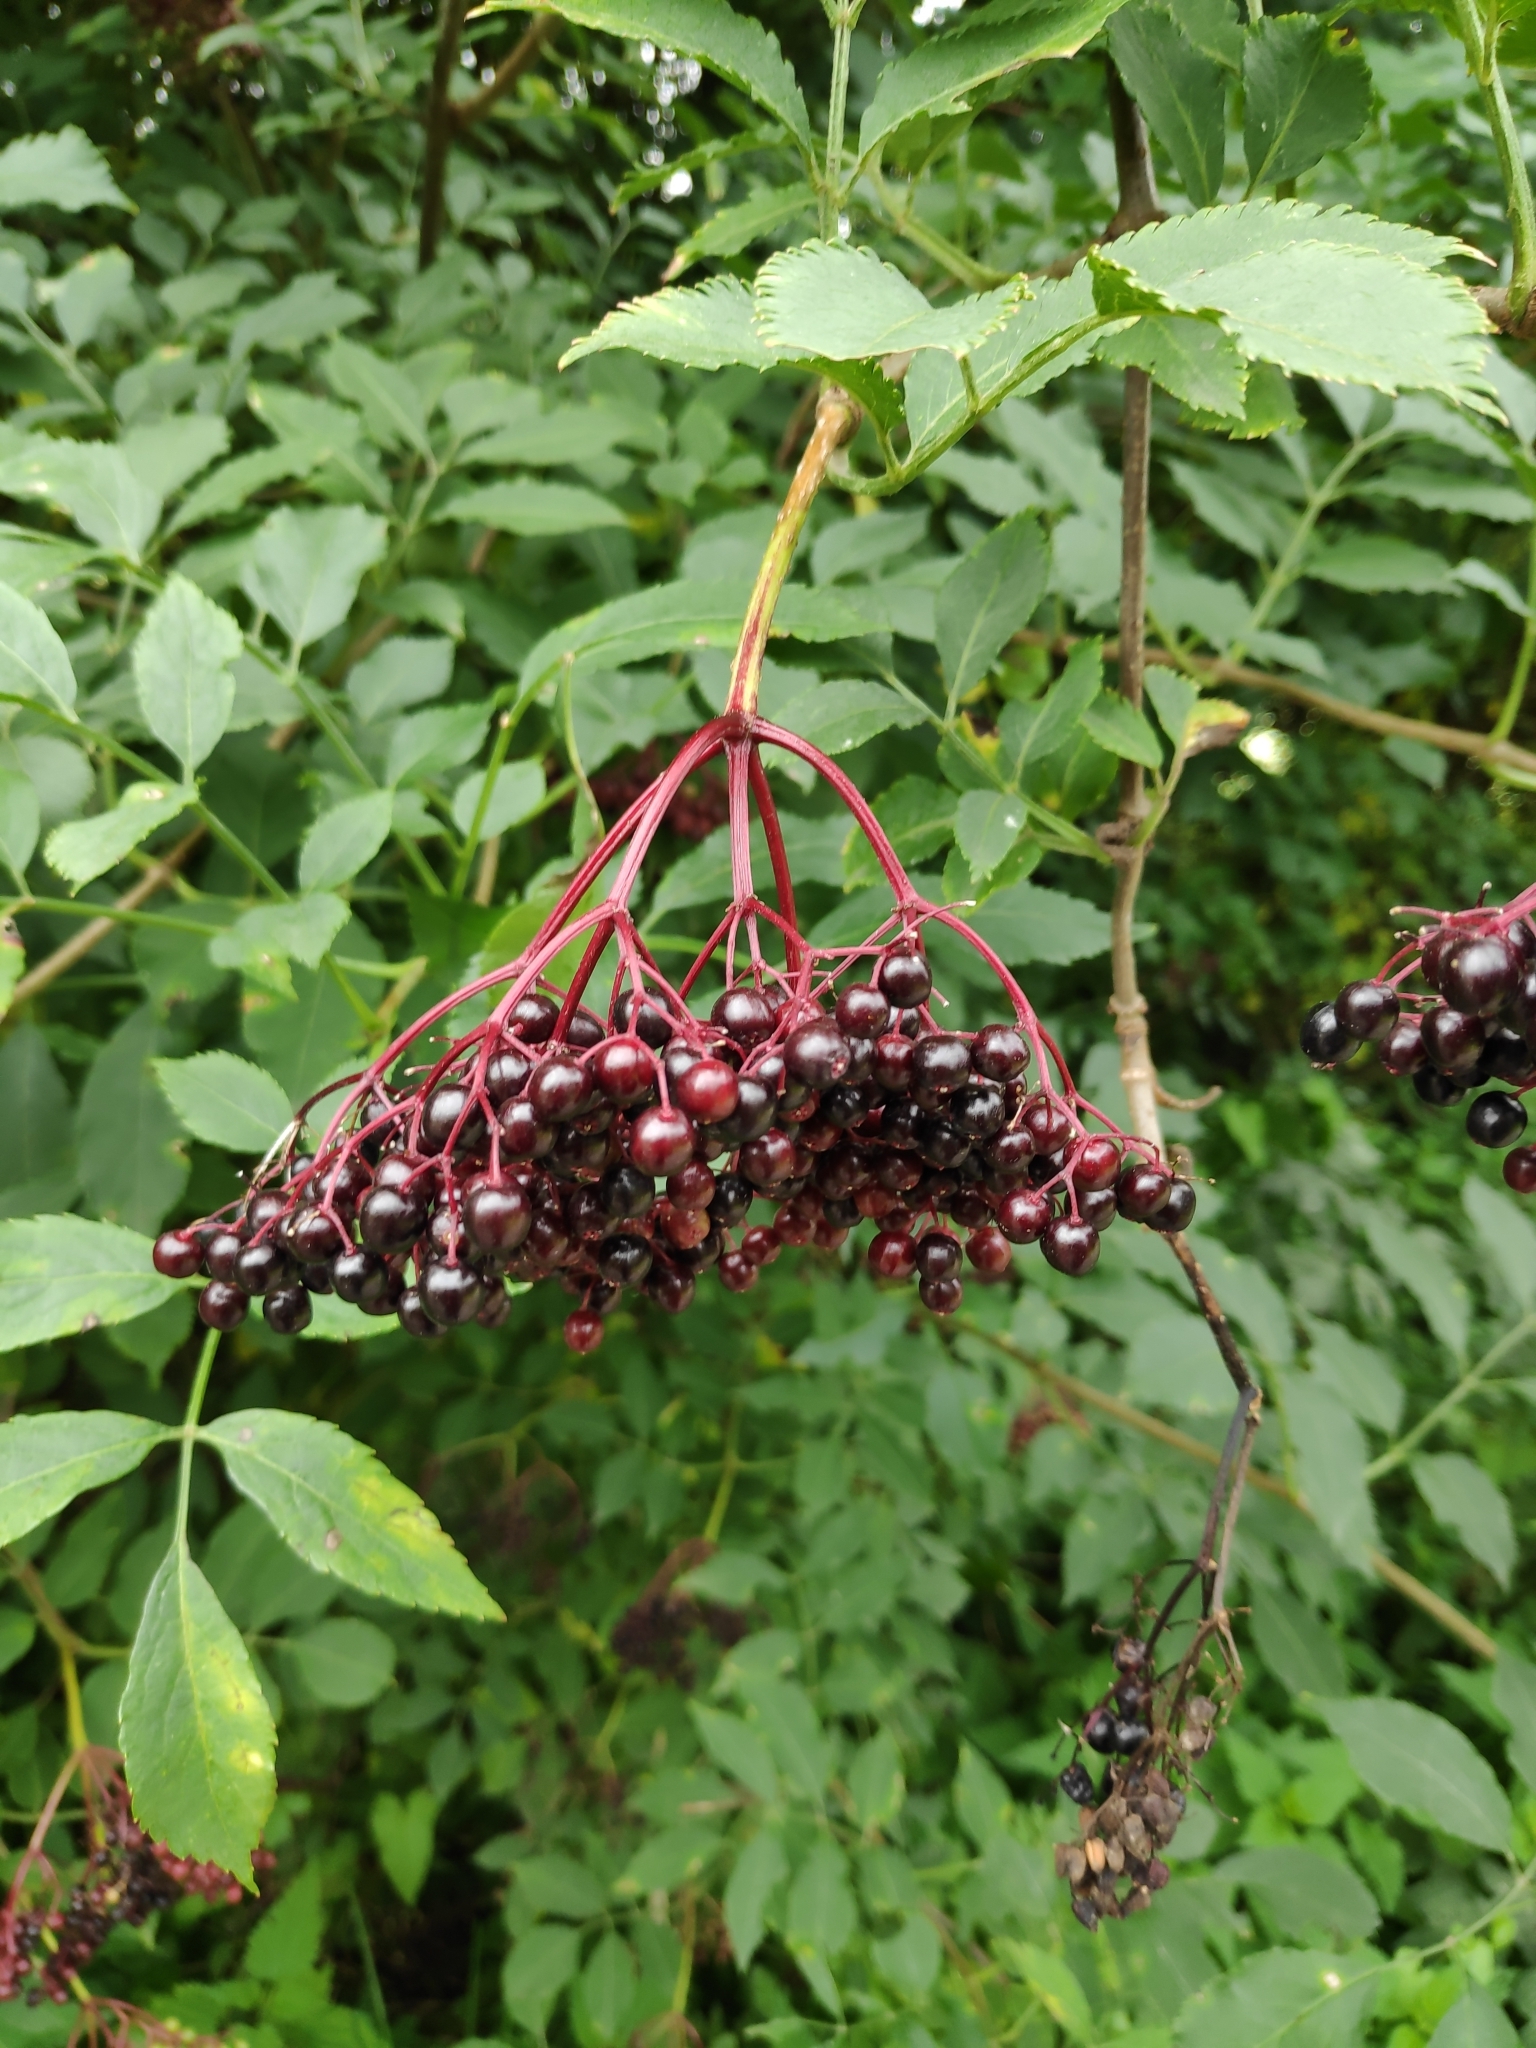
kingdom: Plantae
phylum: Tracheophyta
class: Magnoliopsida
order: Dipsacales
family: Viburnaceae
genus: Sambucus
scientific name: Sambucus nigra
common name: Elder
